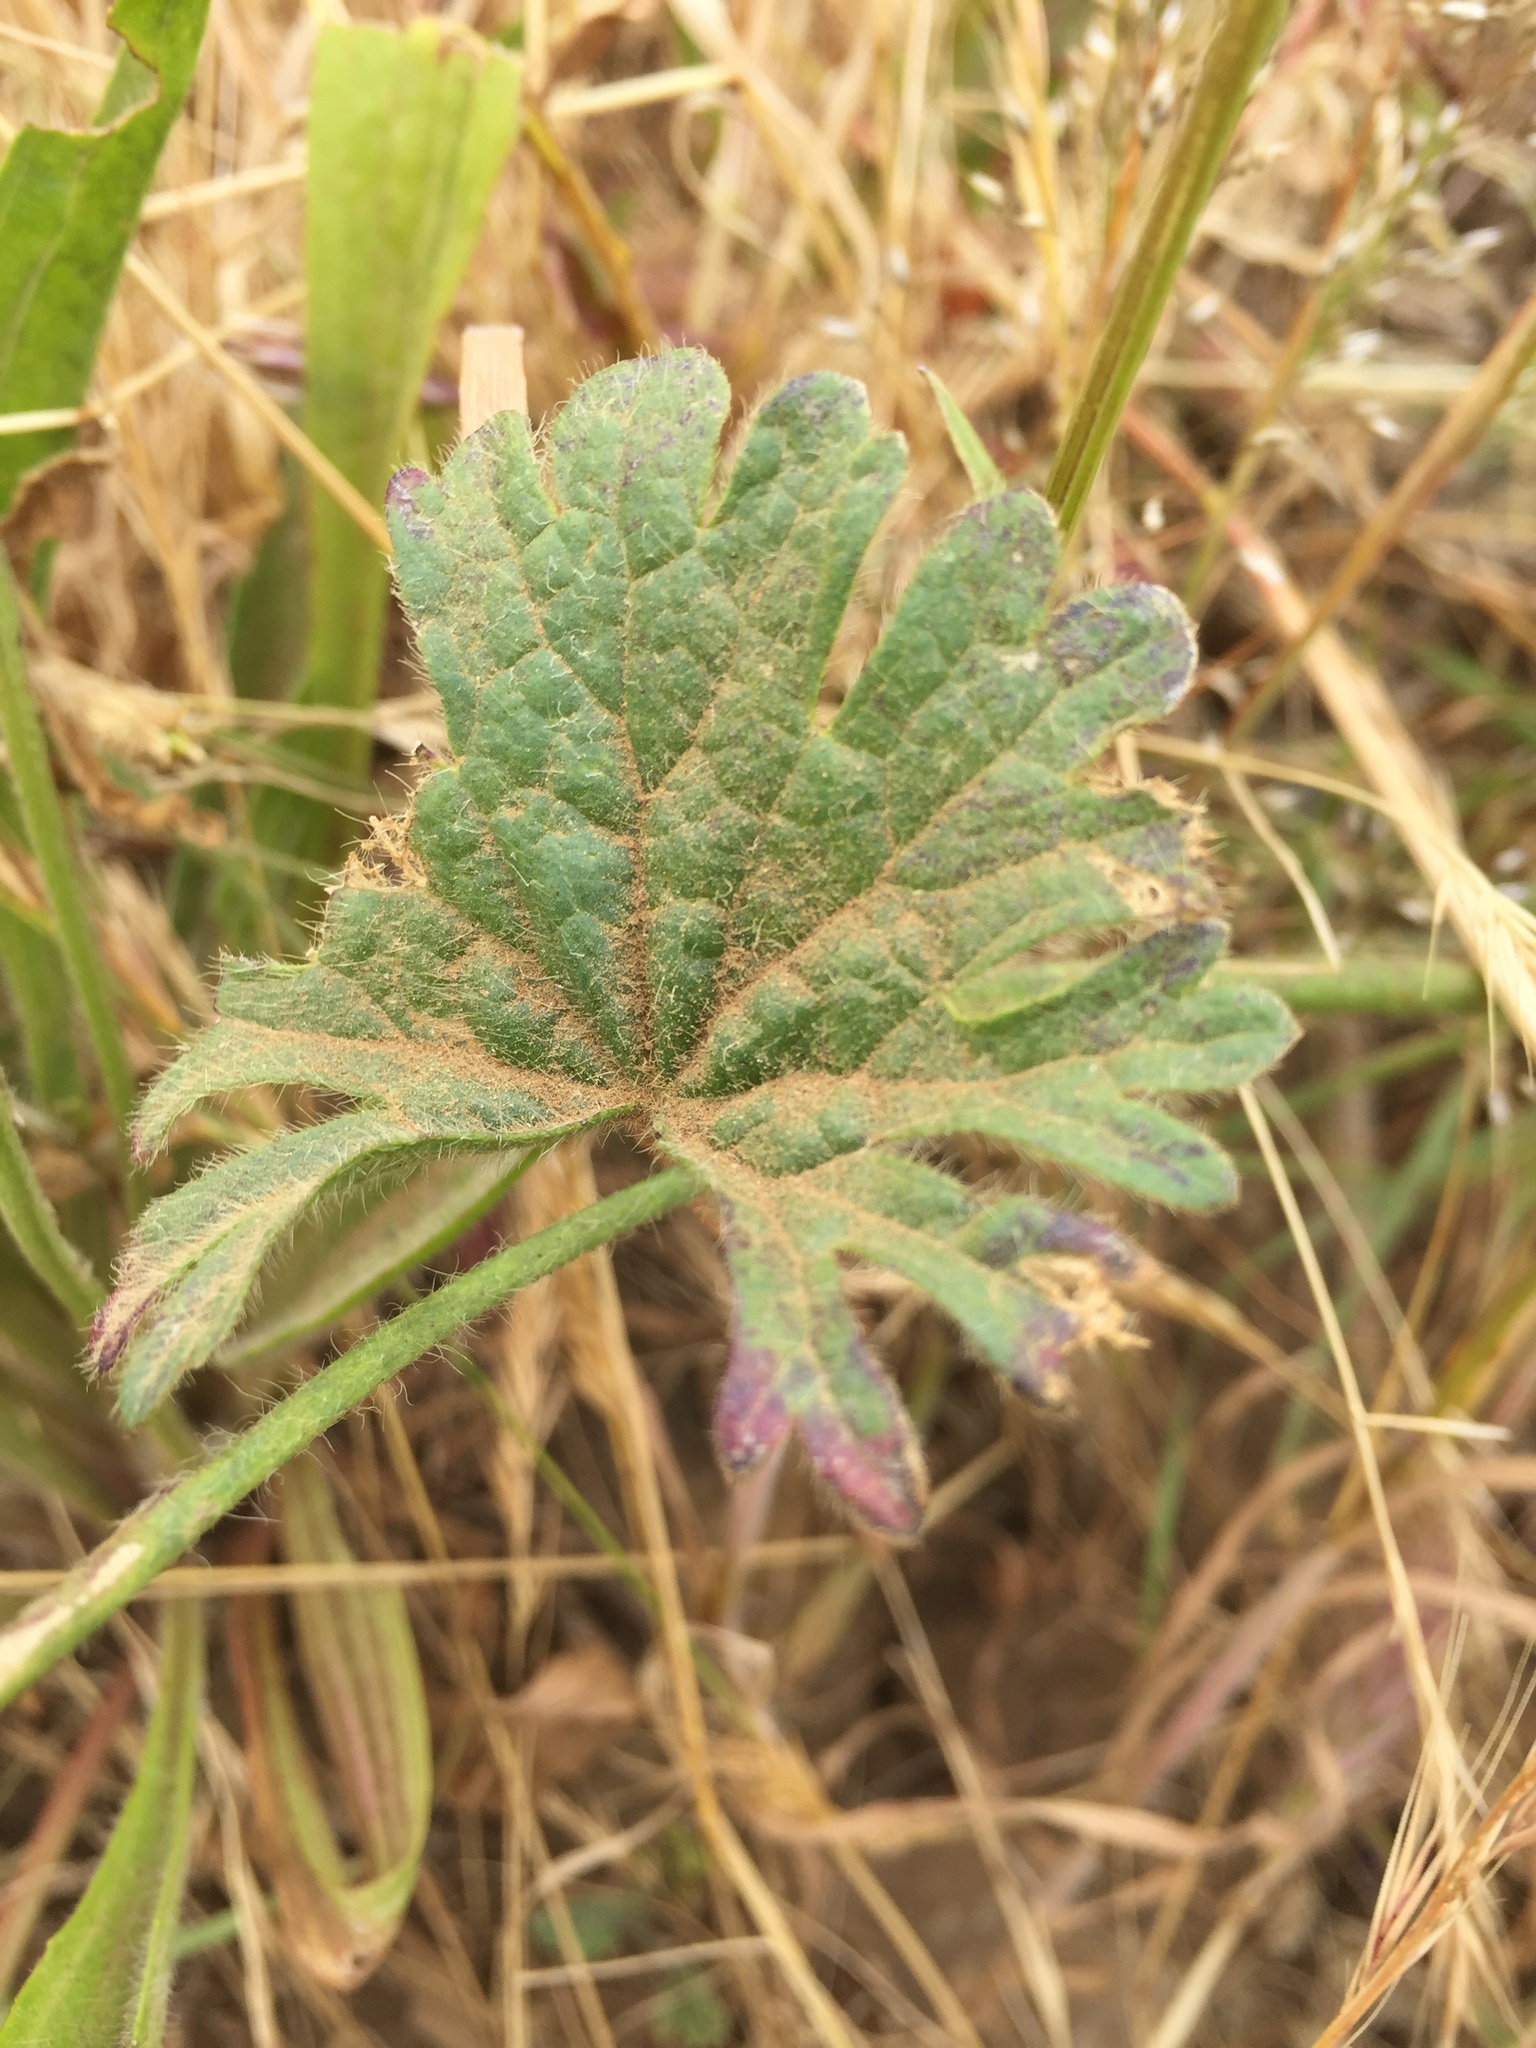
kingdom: Plantae
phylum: Tracheophyta
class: Magnoliopsida
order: Malvales
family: Malvaceae
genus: Sidalcea
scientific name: Sidalcea malviflora
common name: Greek mallow
